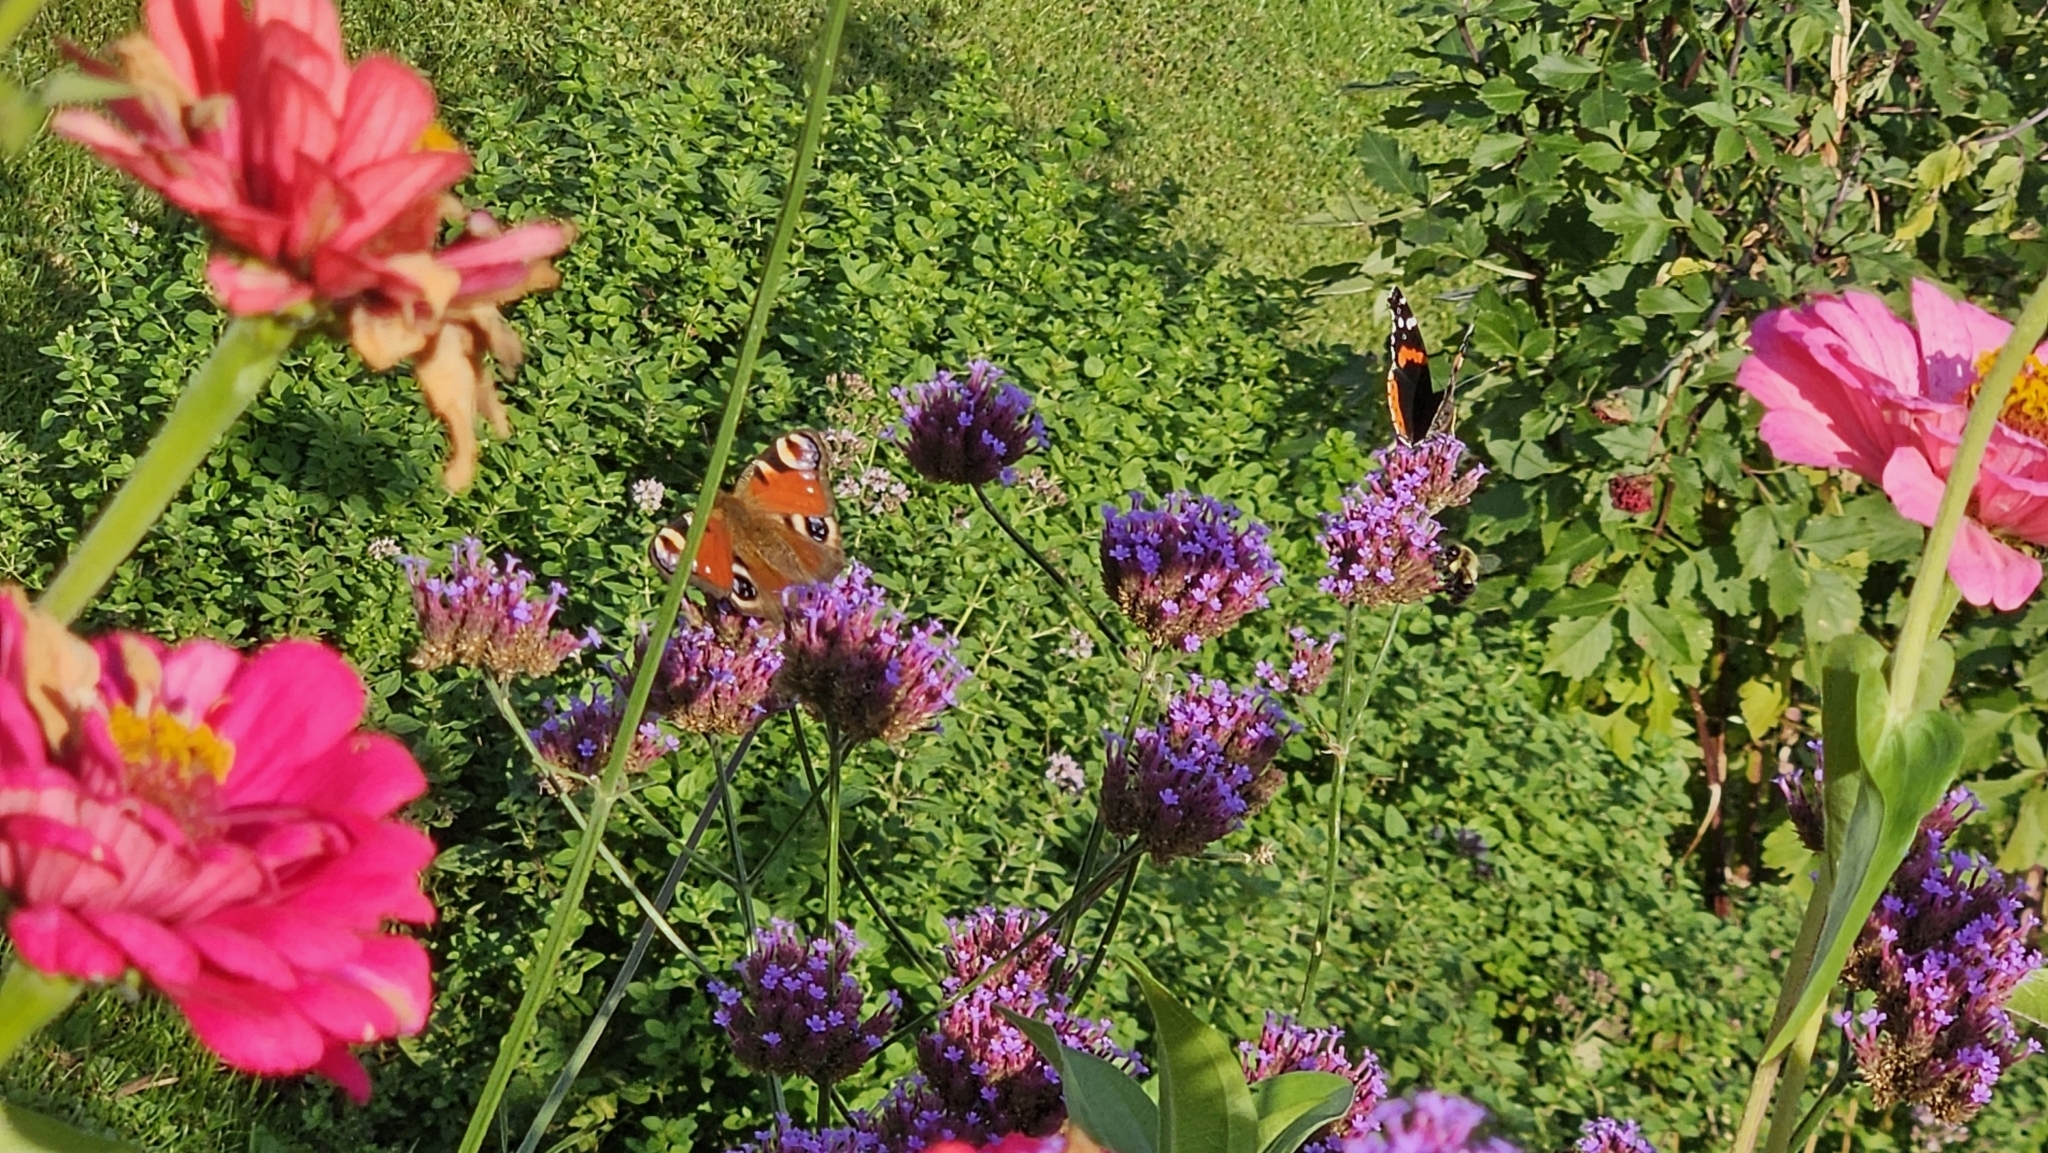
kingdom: Animalia
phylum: Arthropoda
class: Insecta
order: Lepidoptera
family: Nymphalidae
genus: Aglais
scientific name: Aglais io
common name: Peacock
